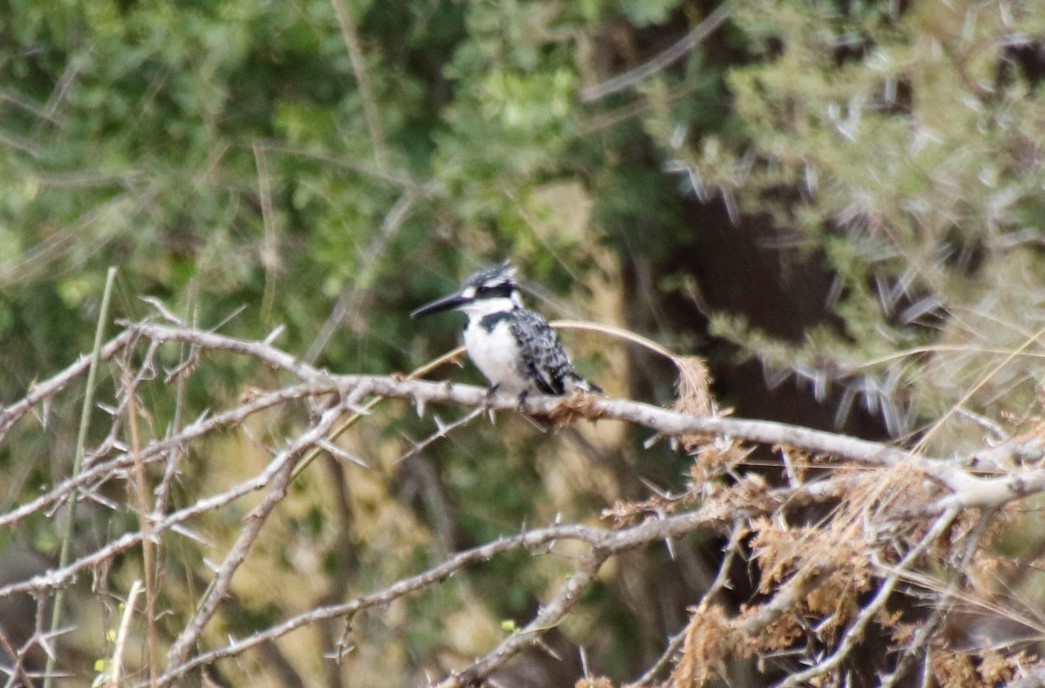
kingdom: Animalia
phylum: Chordata
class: Aves
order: Coraciiformes
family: Alcedinidae
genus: Ceryle
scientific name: Ceryle rudis
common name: Pied kingfisher
